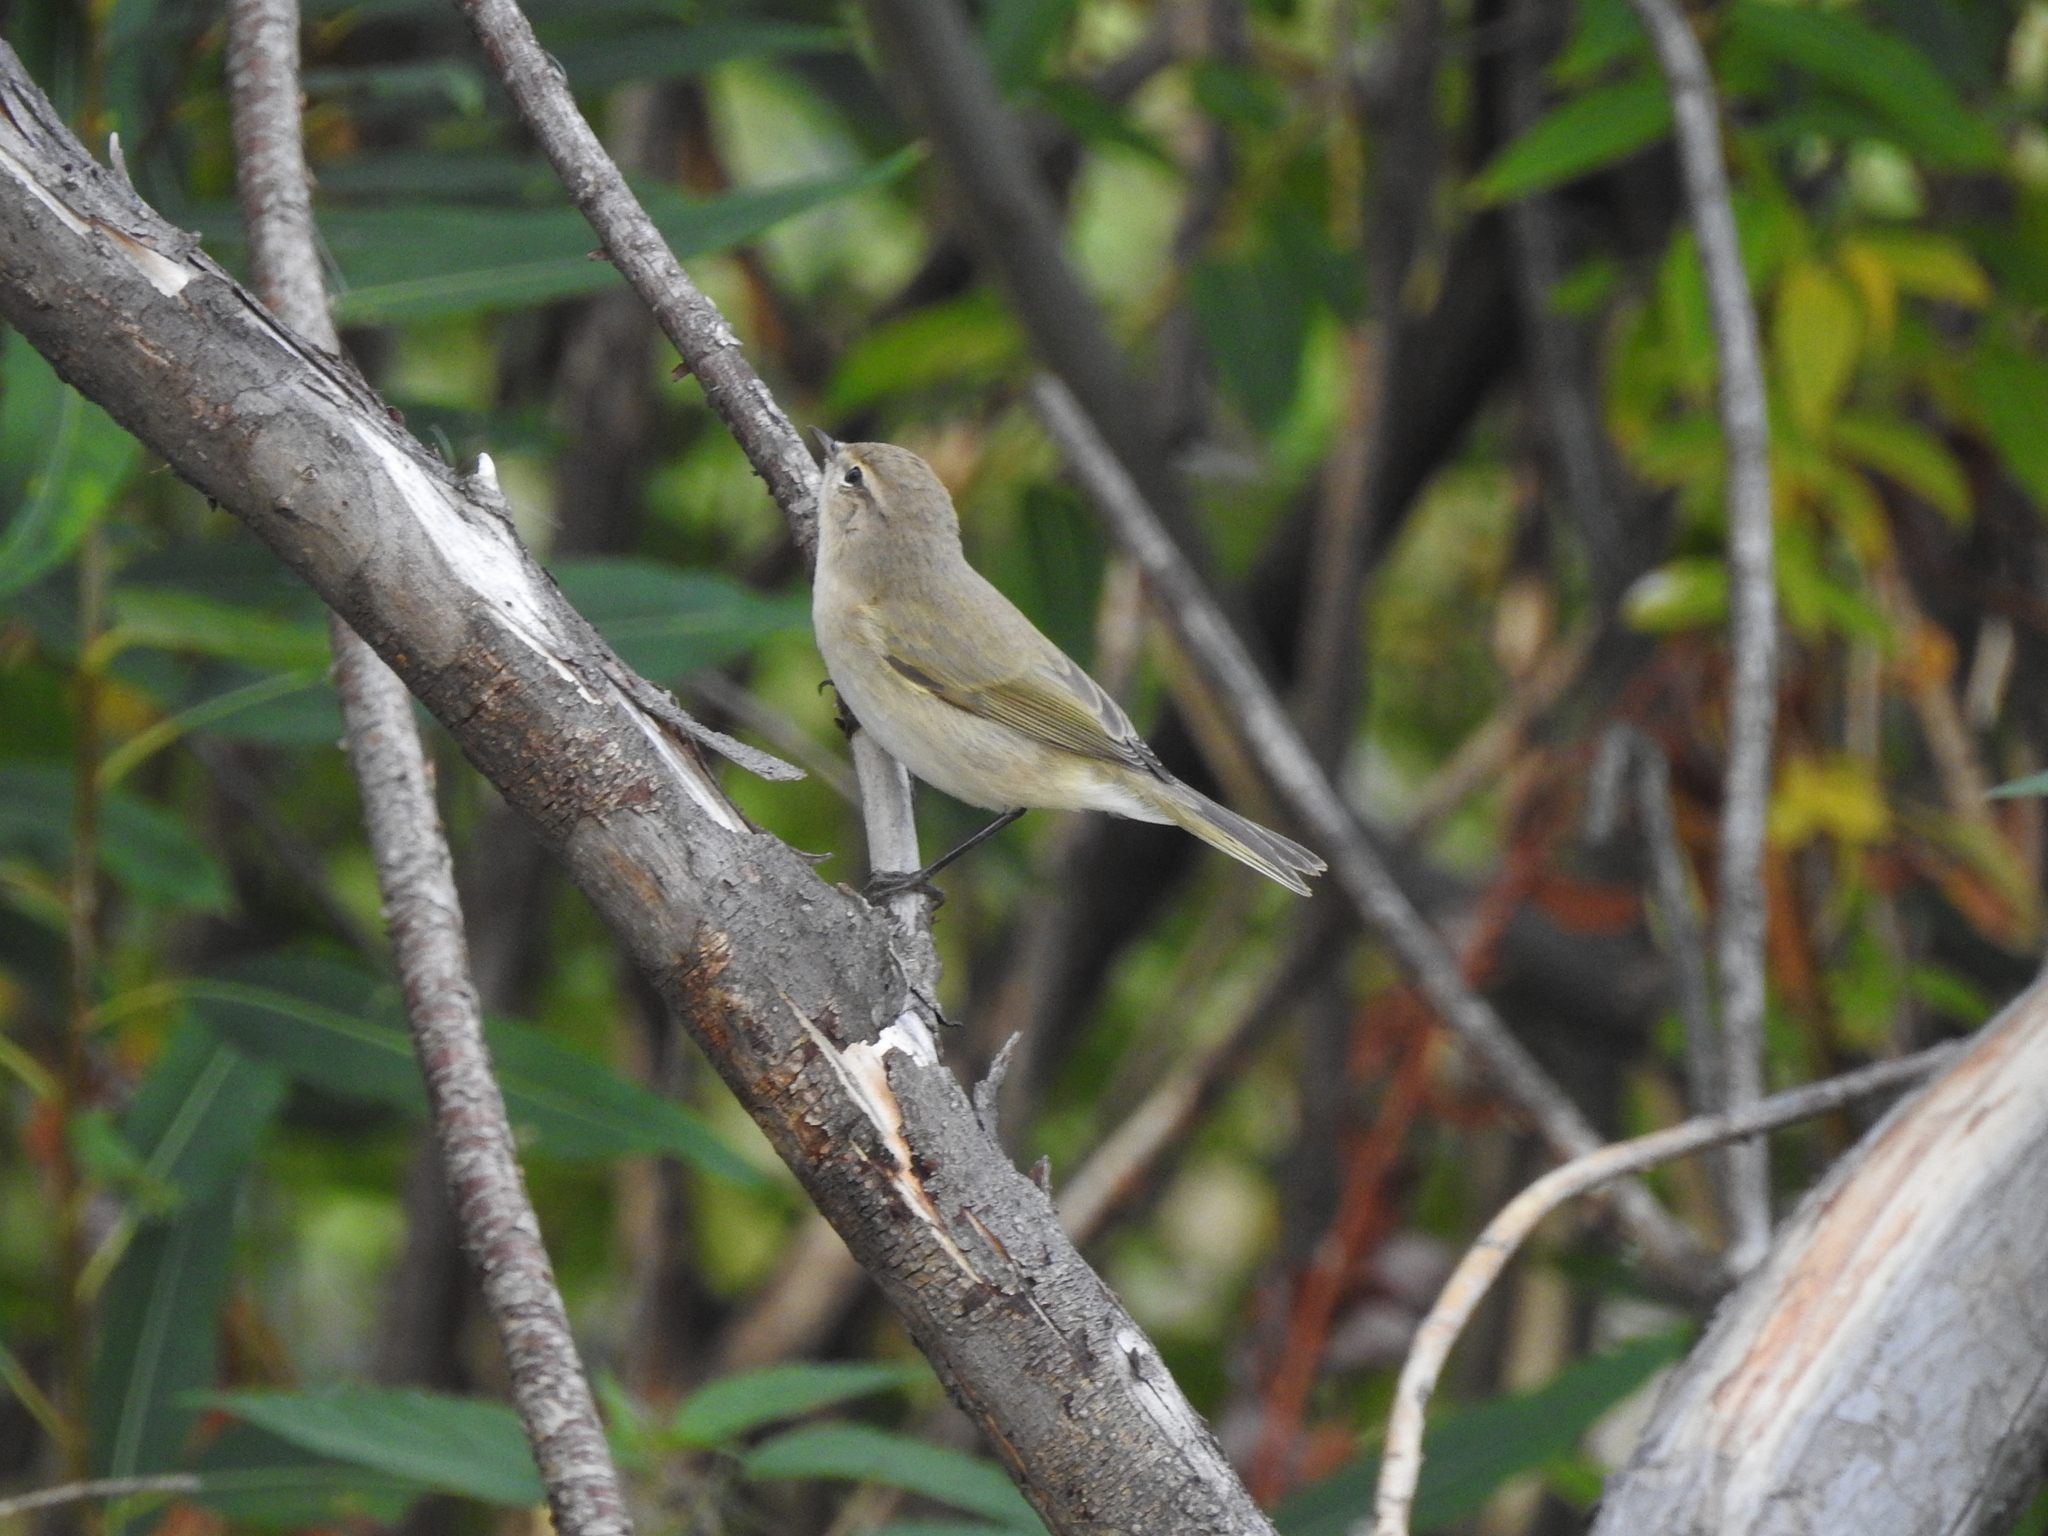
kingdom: Animalia
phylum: Chordata
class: Aves
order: Passeriformes
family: Phylloscopidae
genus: Phylloscopus
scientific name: Phylloscopus collybita
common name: Common chiffchaff
